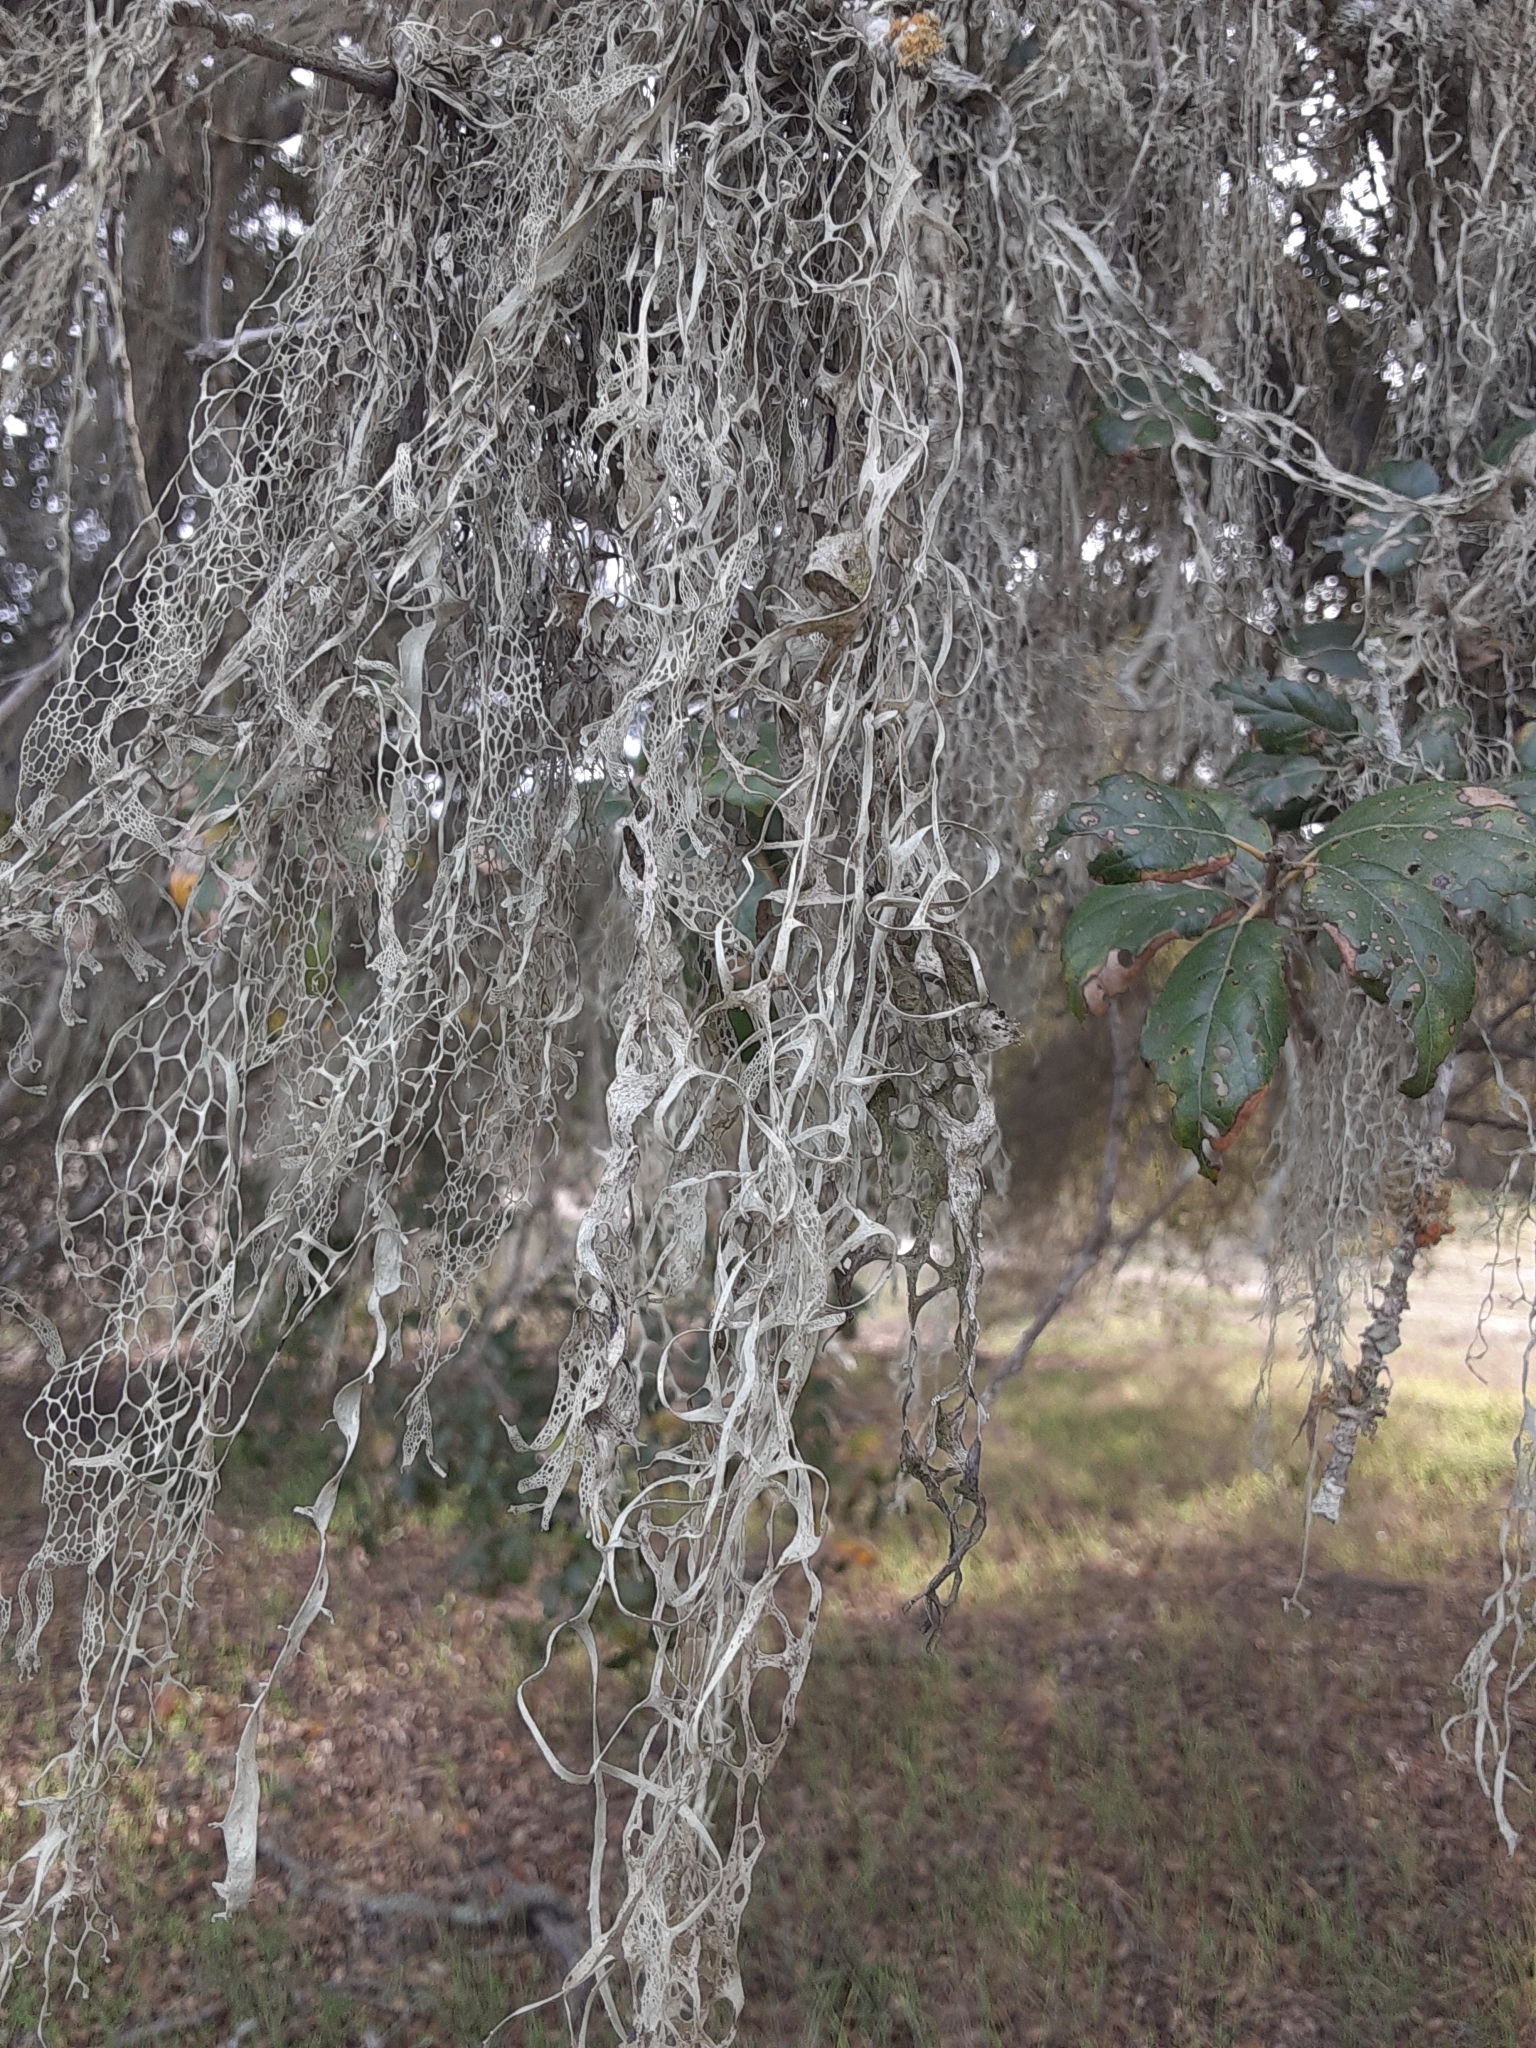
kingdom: Fungi
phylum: Ascomycota
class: Lecanoromycetes
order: Lecanorales
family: Ramalinaceae
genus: Ramalina
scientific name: Ramalina menziesii
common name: Lace lichen
